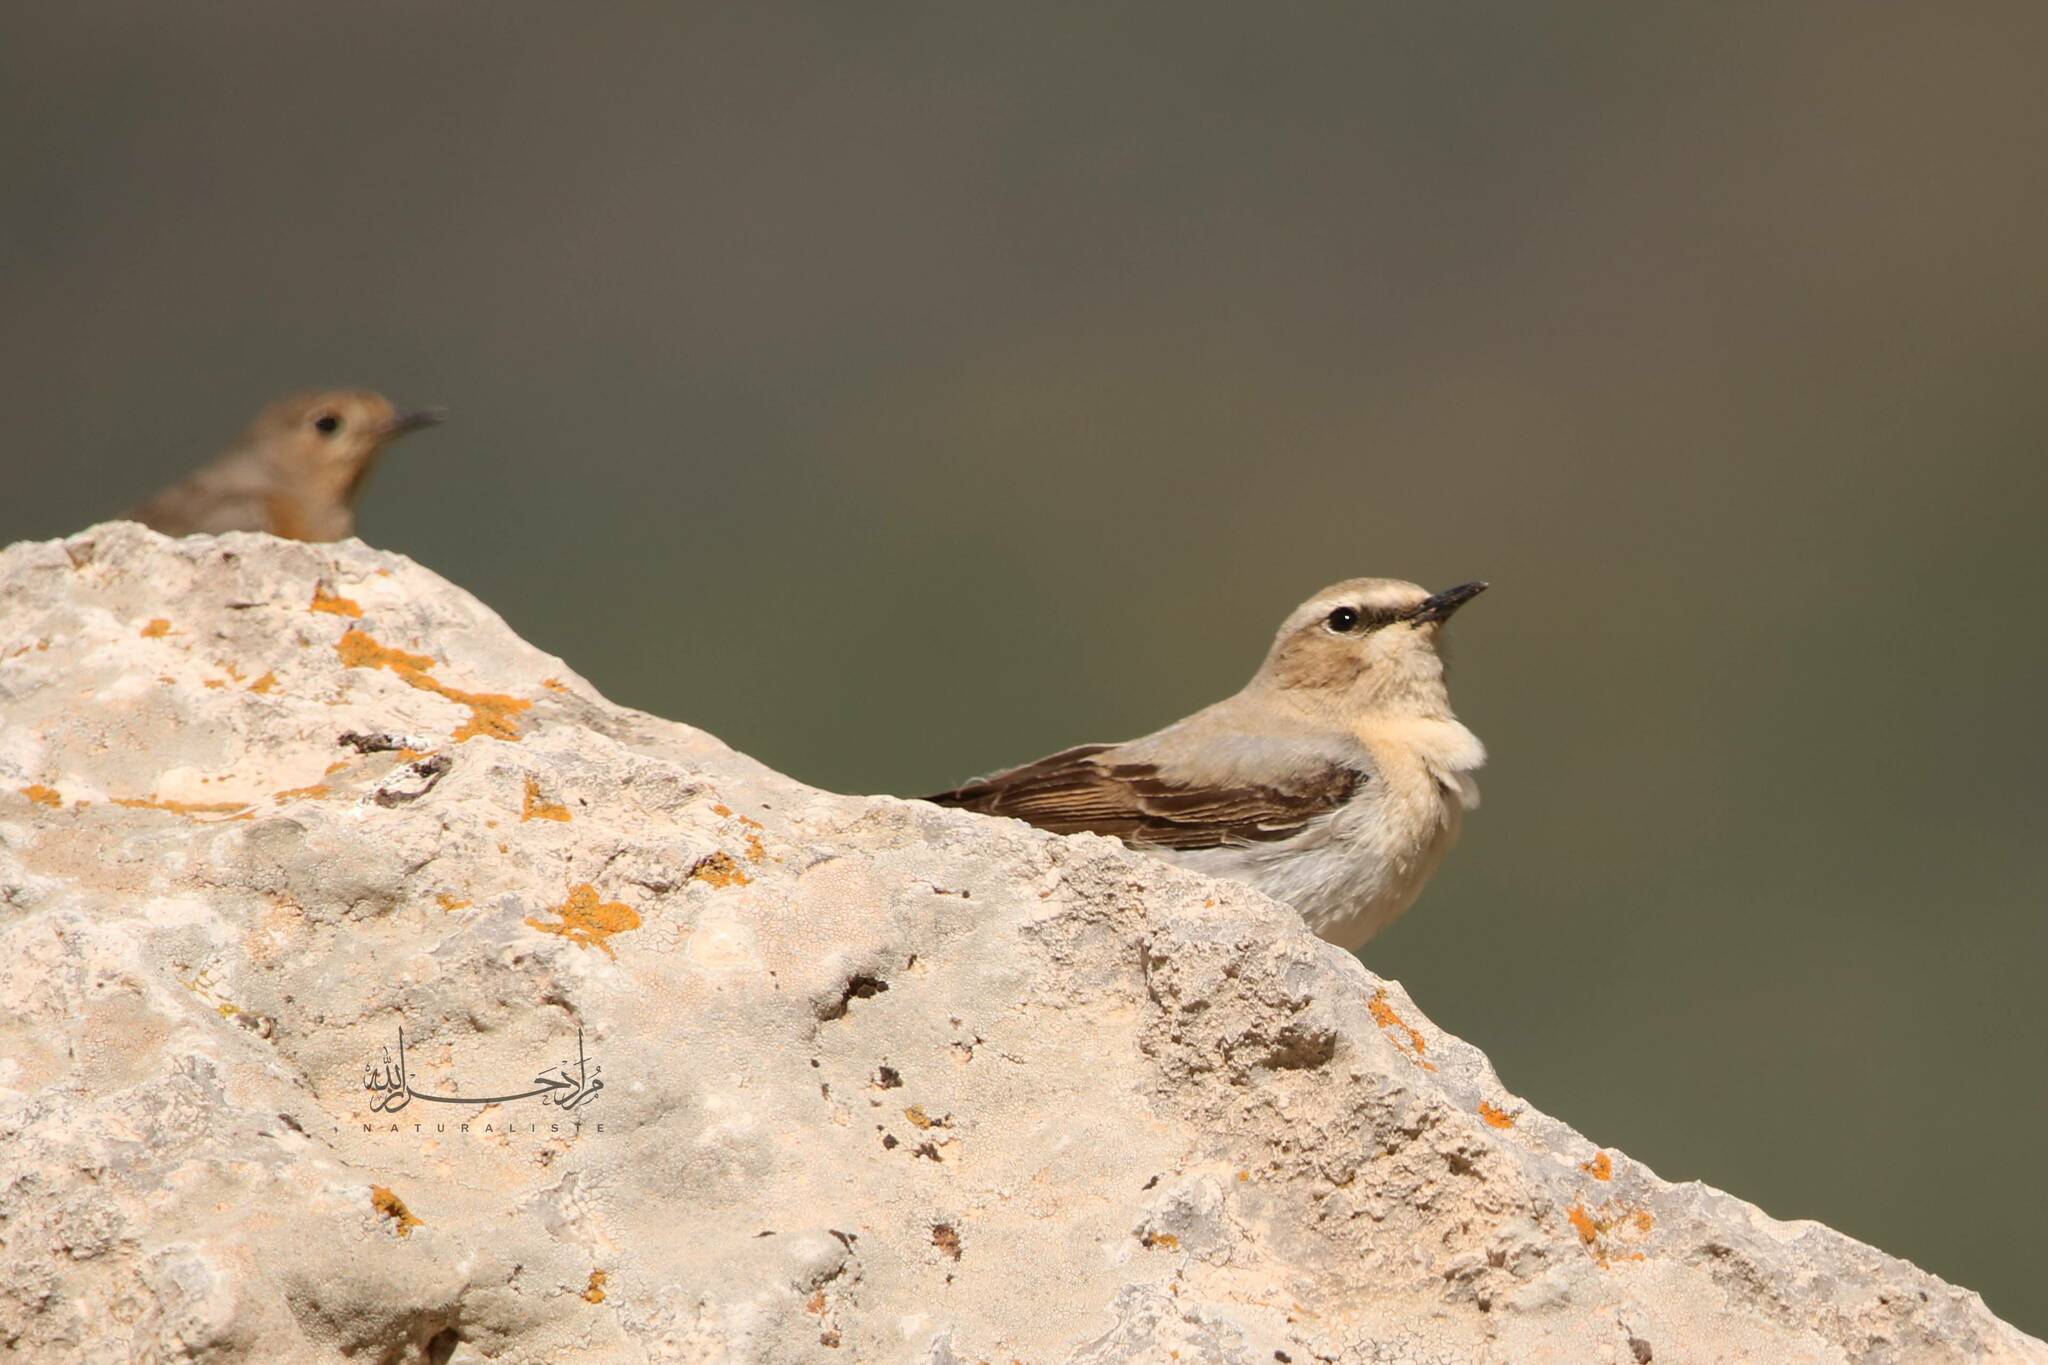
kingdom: Animalia
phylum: Chordata
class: Aves
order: Passeriformes
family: Muscicapidae
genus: Oenanthe
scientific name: Oenanthe oenanthe
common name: Northern wheatear
